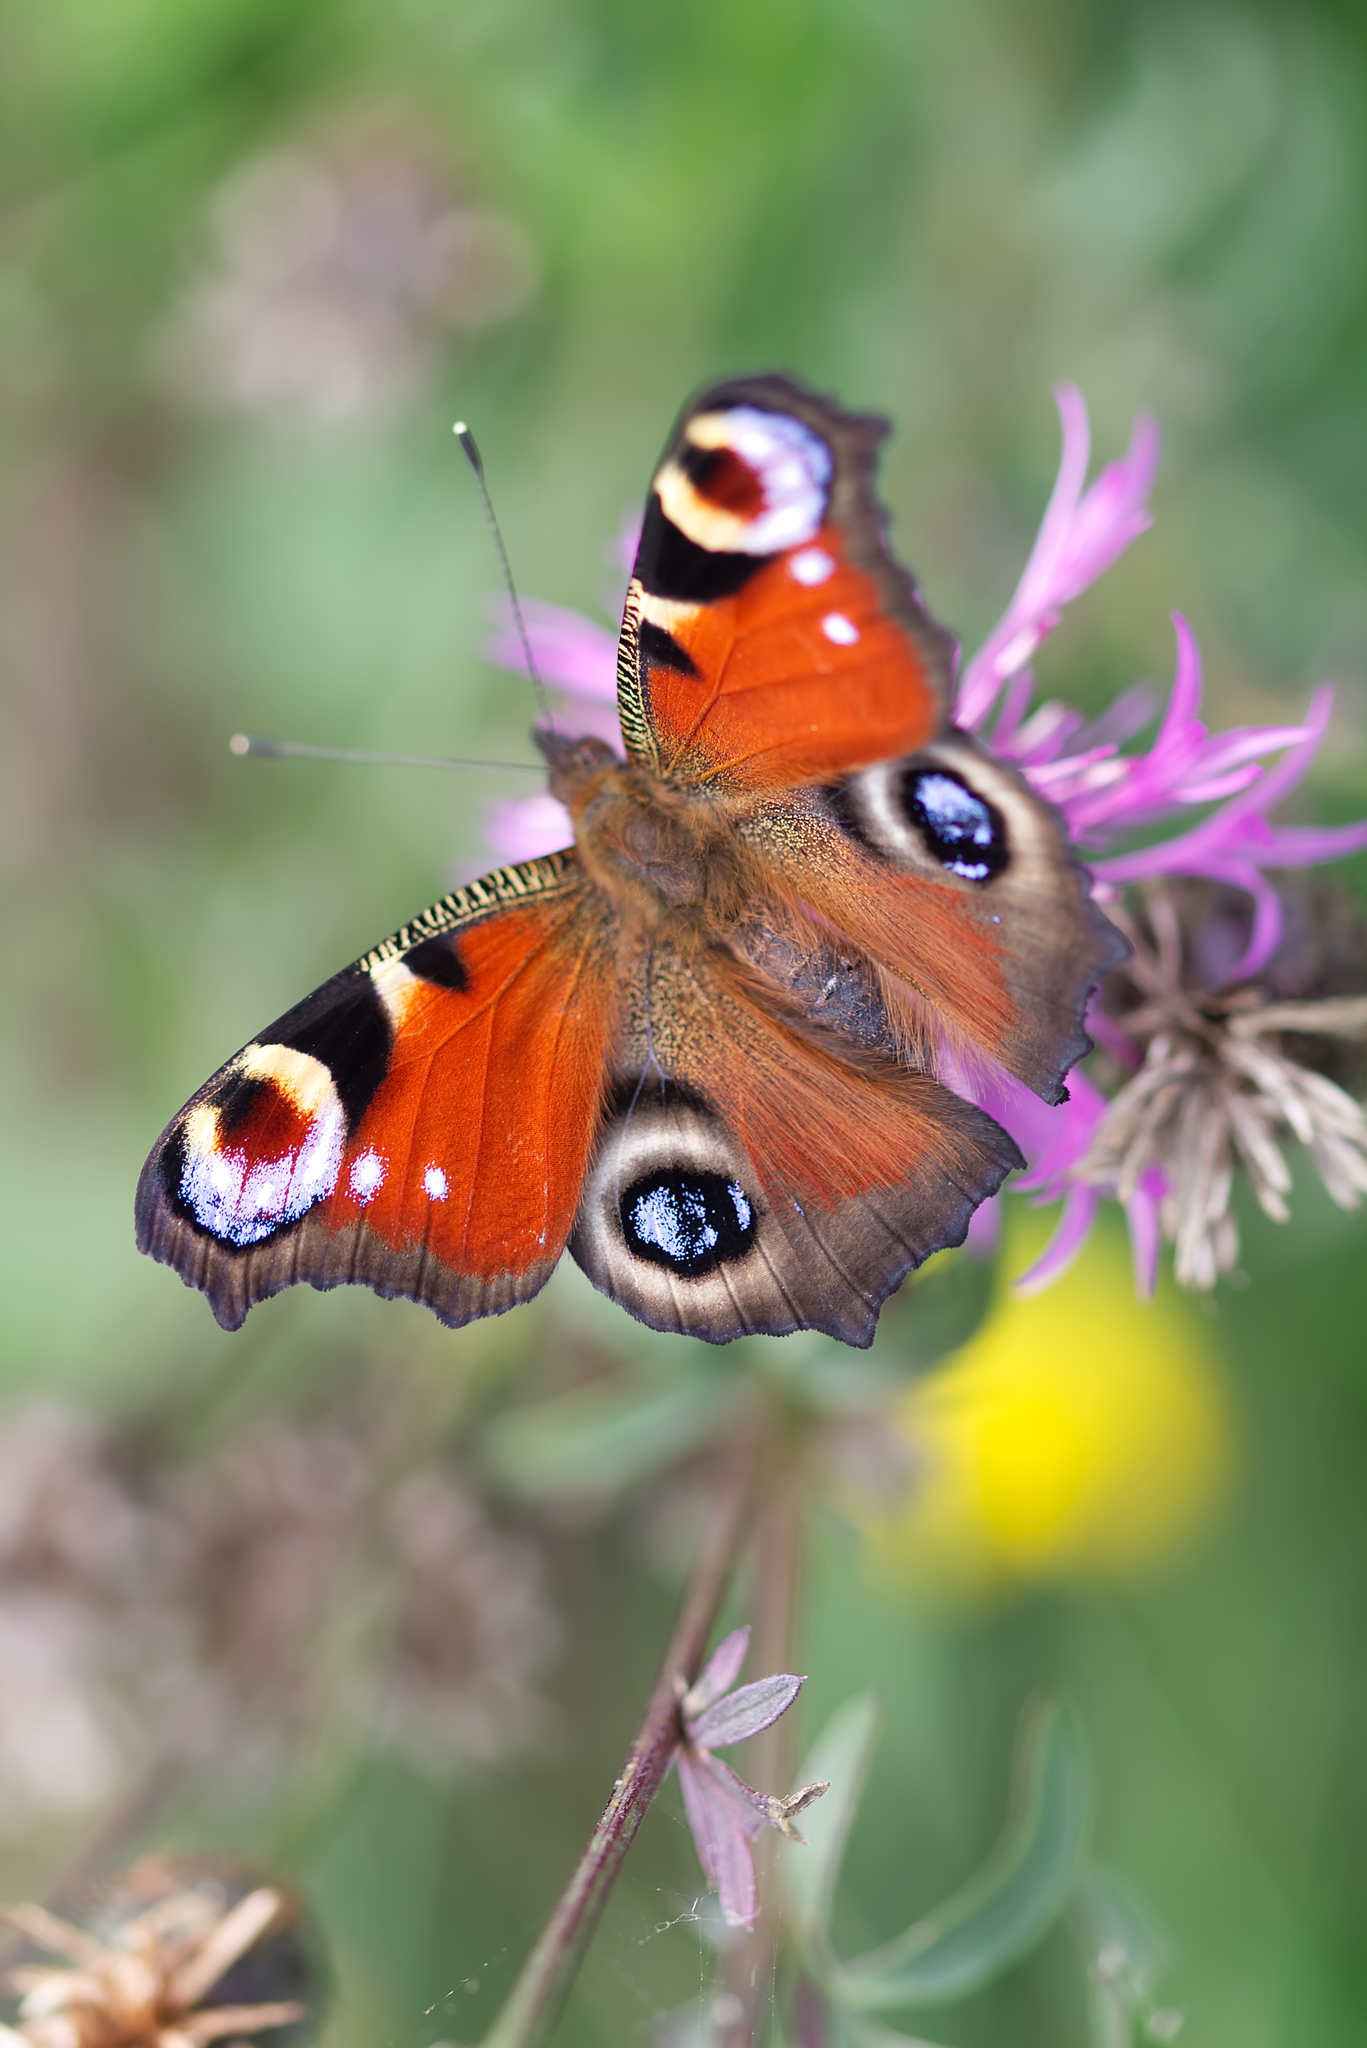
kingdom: Animalia
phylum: Arthropoda
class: Insecta
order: Lepidoptera
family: Nymphalidae
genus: Aglais
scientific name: Aglais io
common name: Peacock
